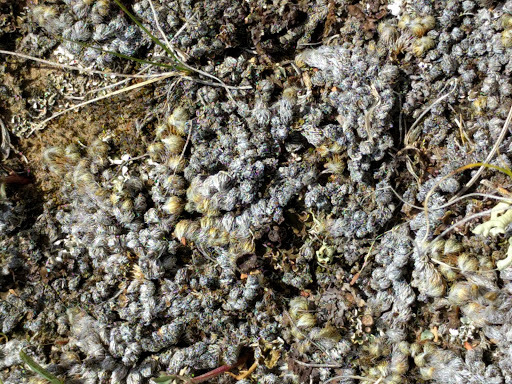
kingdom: Plantae
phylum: Tracheophyta
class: Lycopodiopsida
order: Selaginellales
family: Selaginellaceae
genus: Selaginella
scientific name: Selaginella densa
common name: Mountain spike-moss
